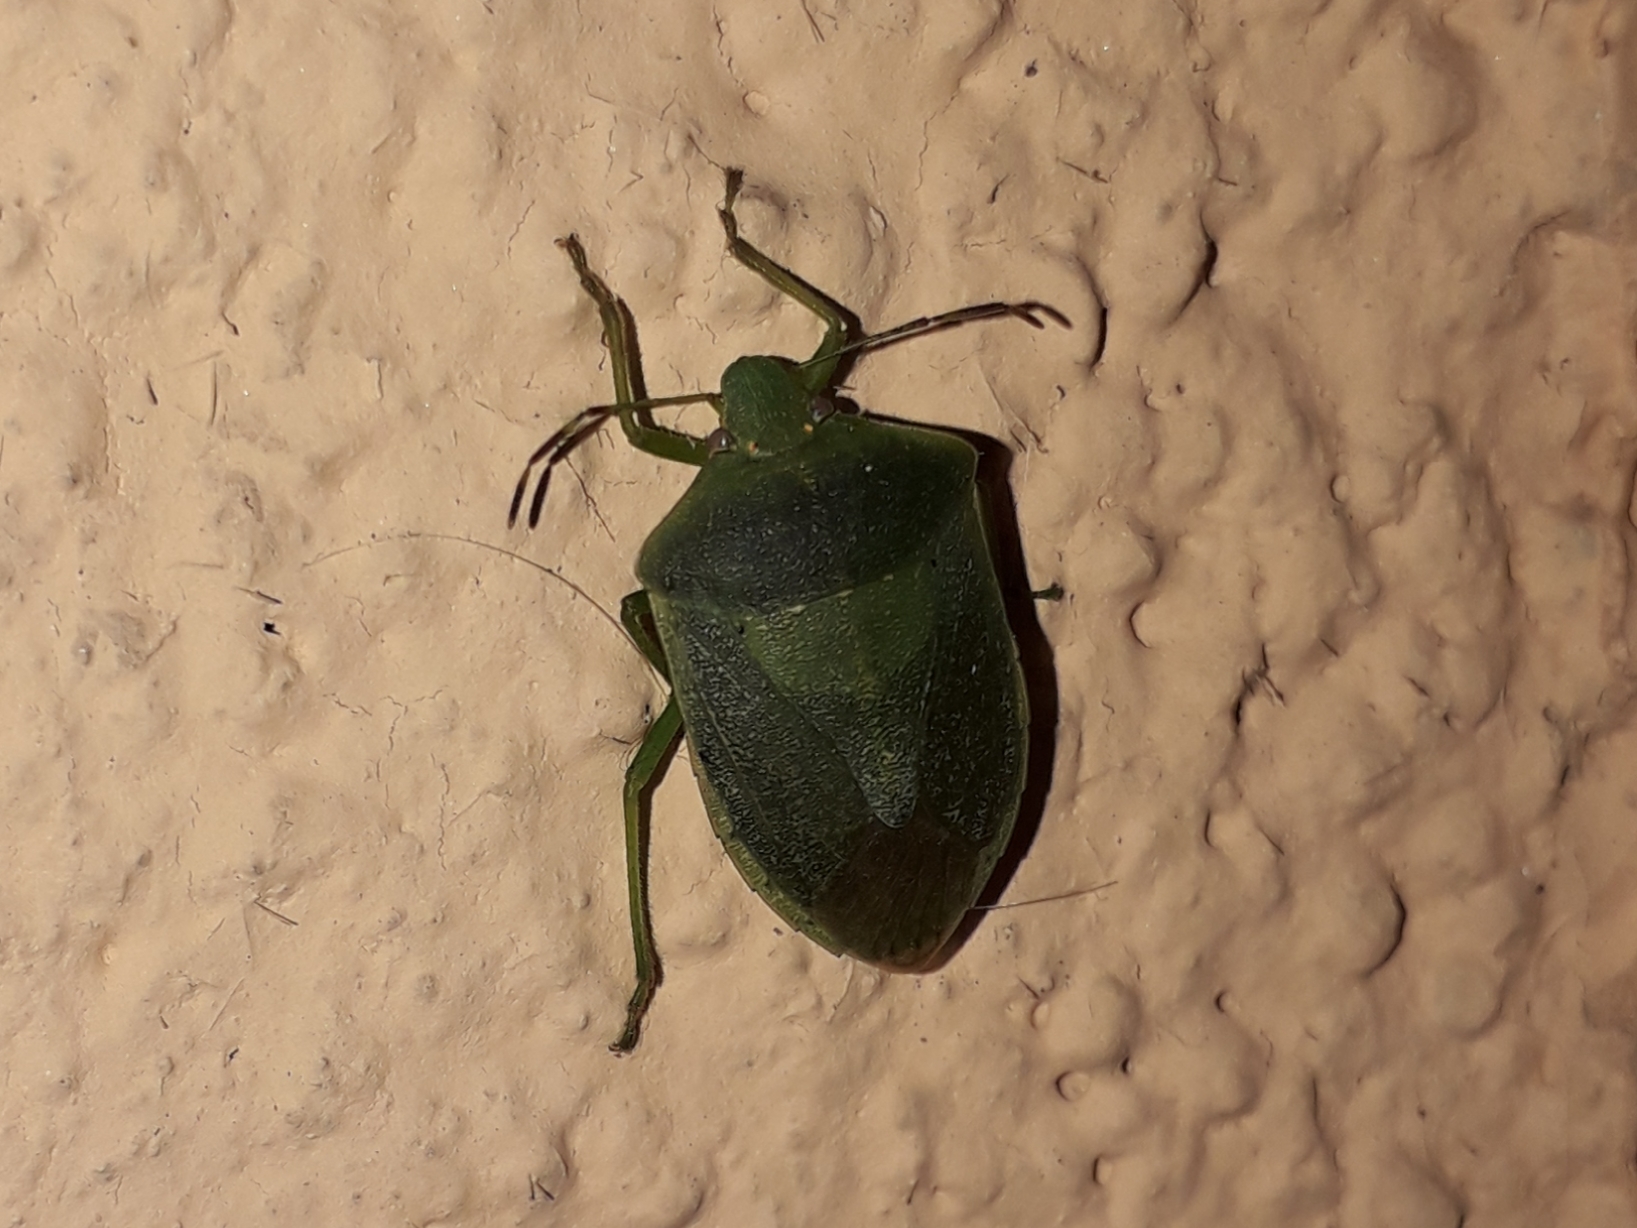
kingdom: Animalia
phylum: Arthropoda
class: Insecta
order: Hemiptera
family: Pentatomidae
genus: Nezara
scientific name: Nezara viridula
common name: Southern green stink bug
